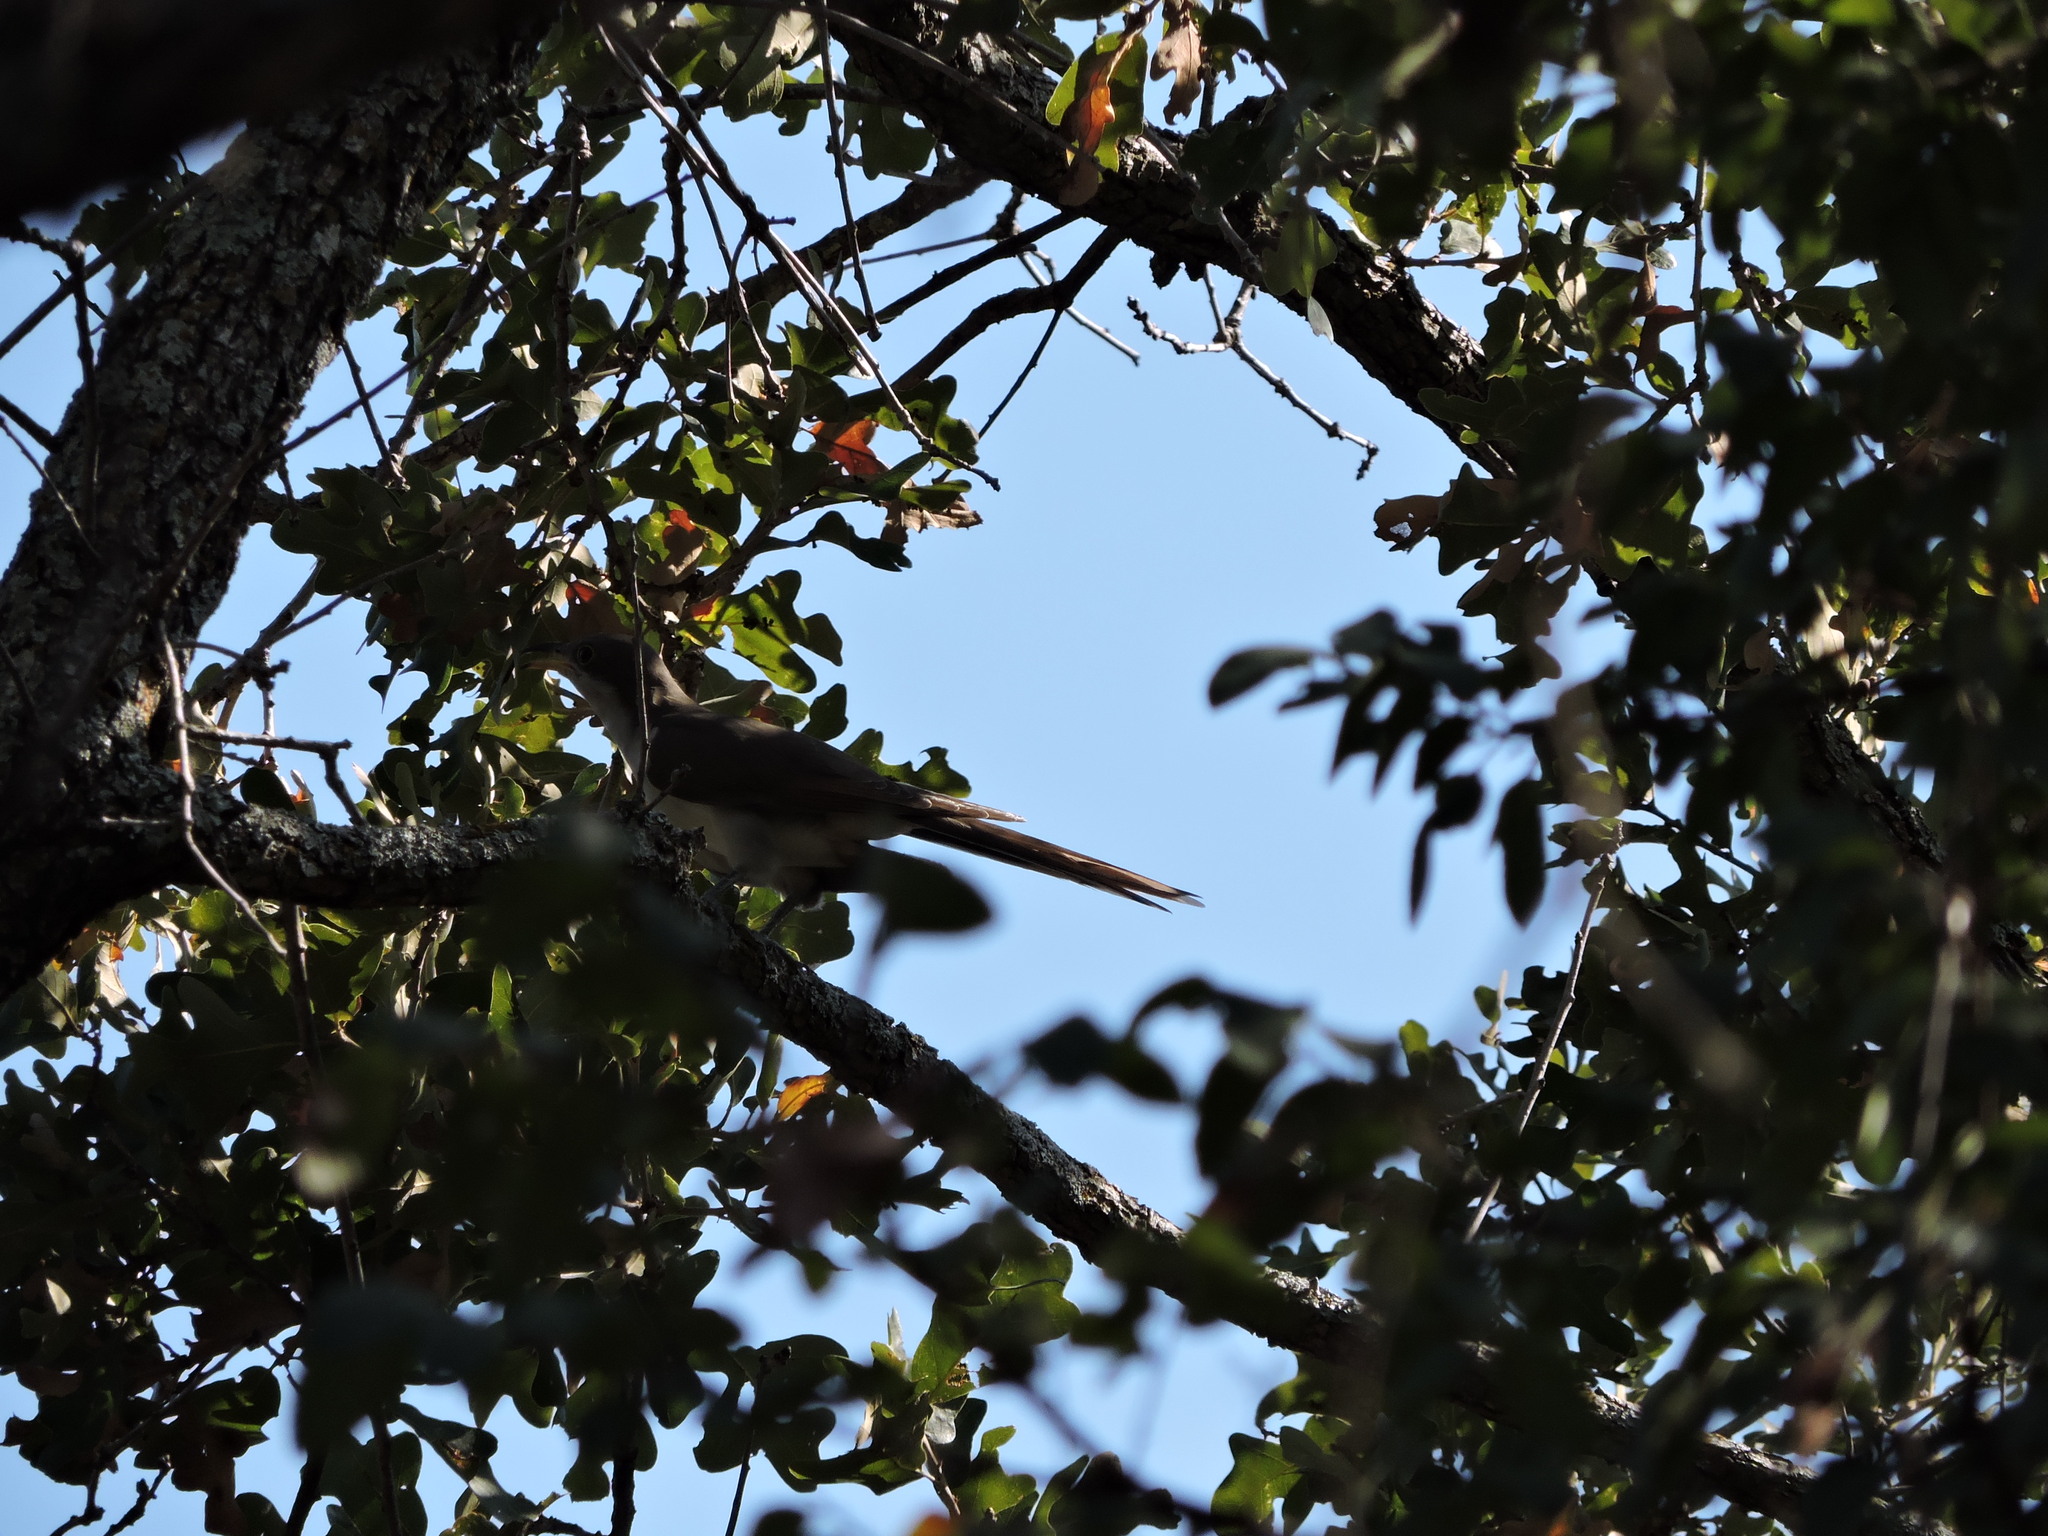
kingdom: Animalia
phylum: Chordata
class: Aves
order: Cuculiformes
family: Cuculidae
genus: Coccyzus
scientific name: Coccyzus americanus
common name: Yellow-billed cuckoo
